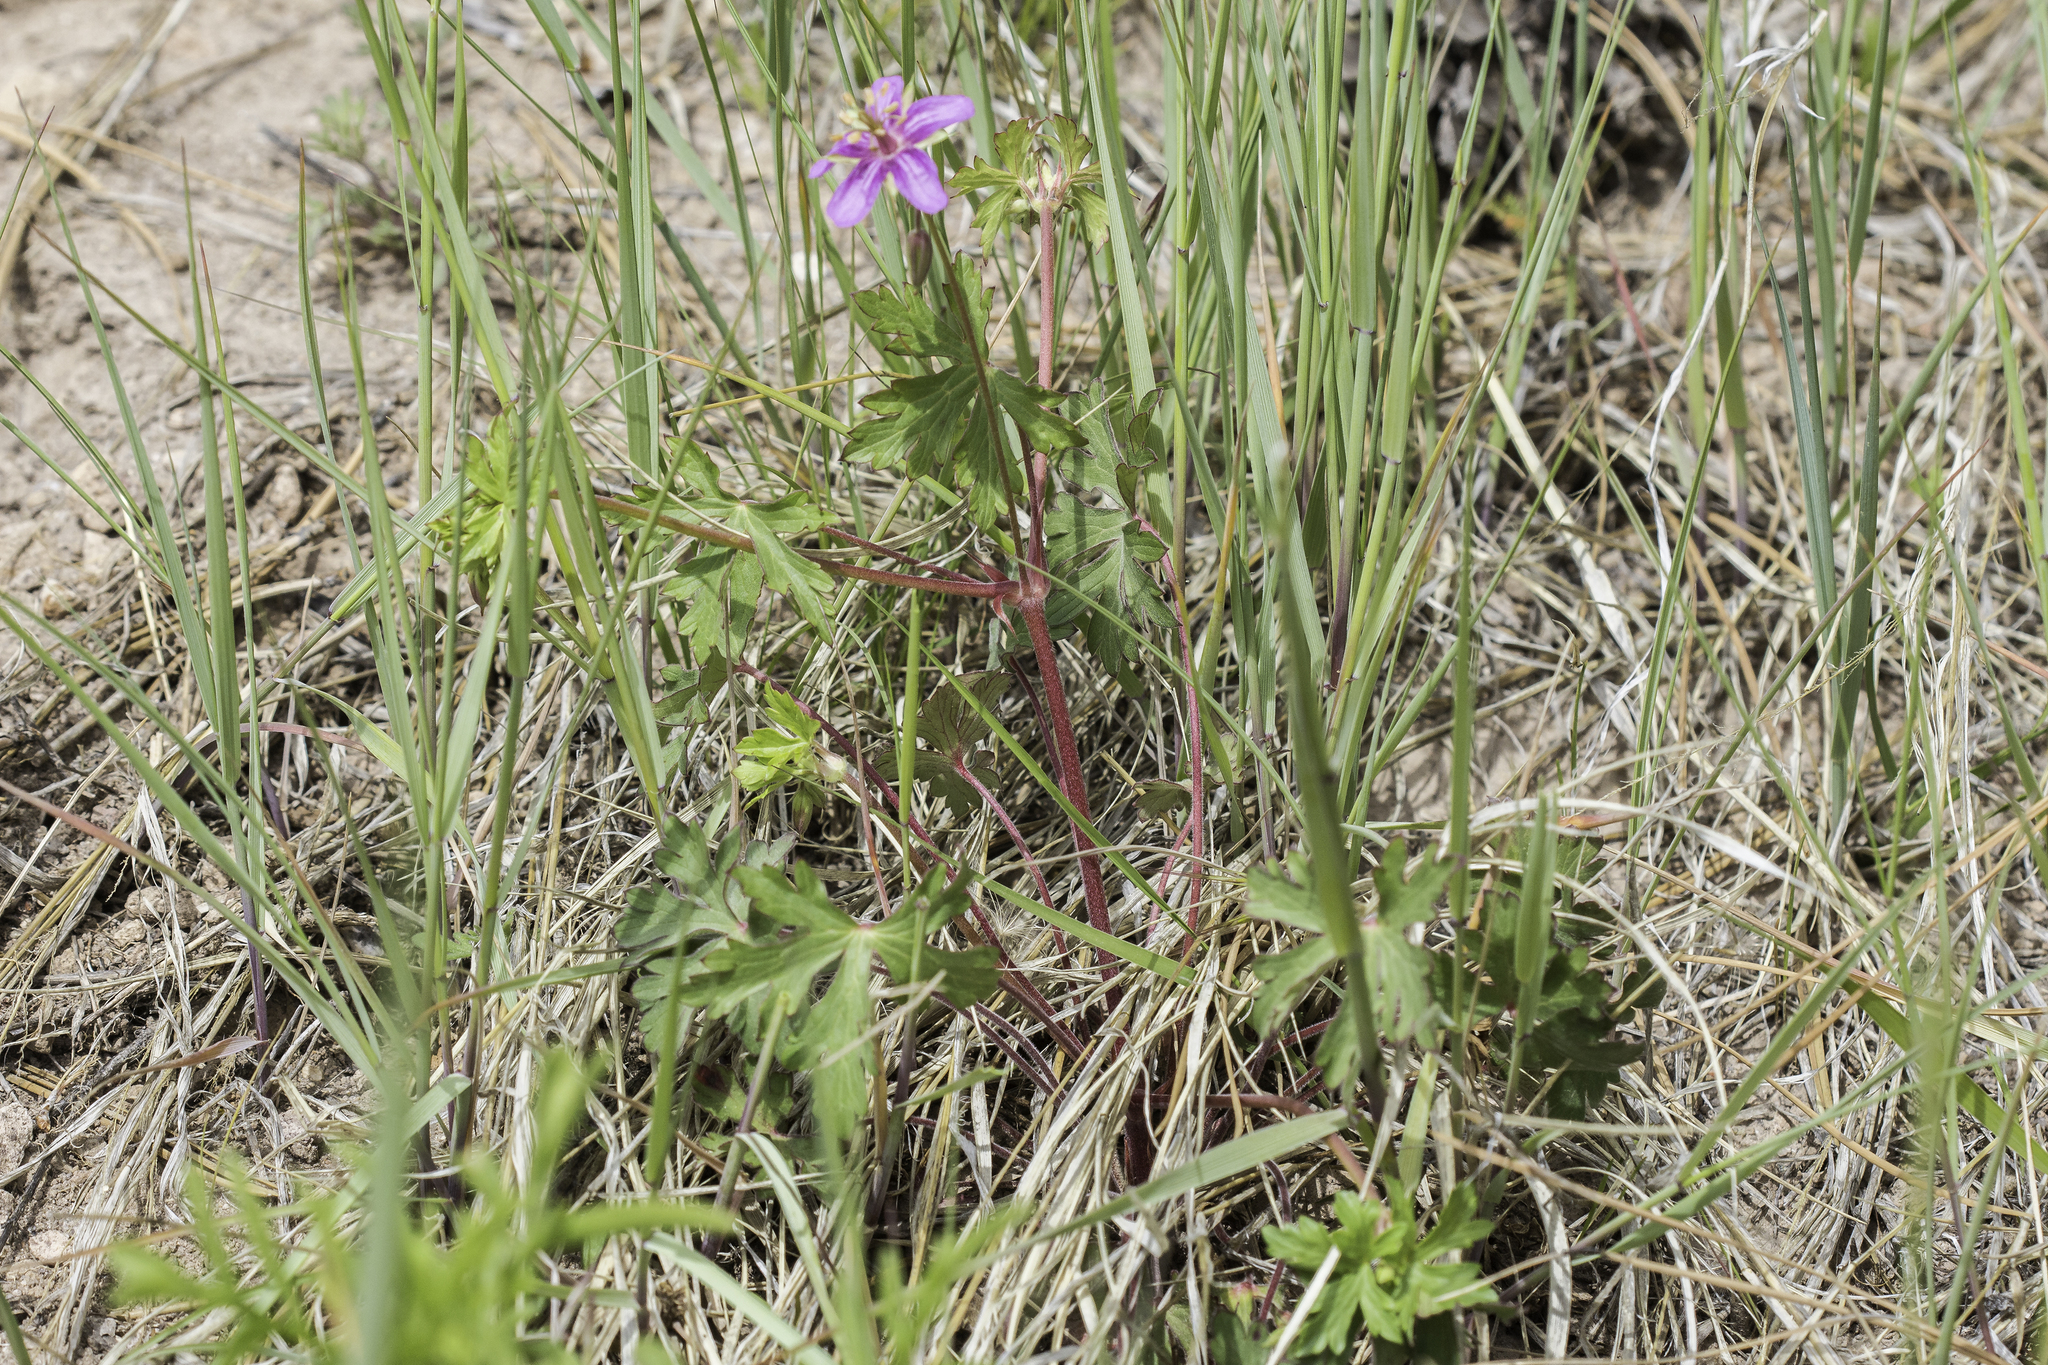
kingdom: Plantae
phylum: Tracheophyta
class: Magnoliopsida
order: Geraniales
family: Geraniaceae
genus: Geranium
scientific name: Geranium caespitosum
